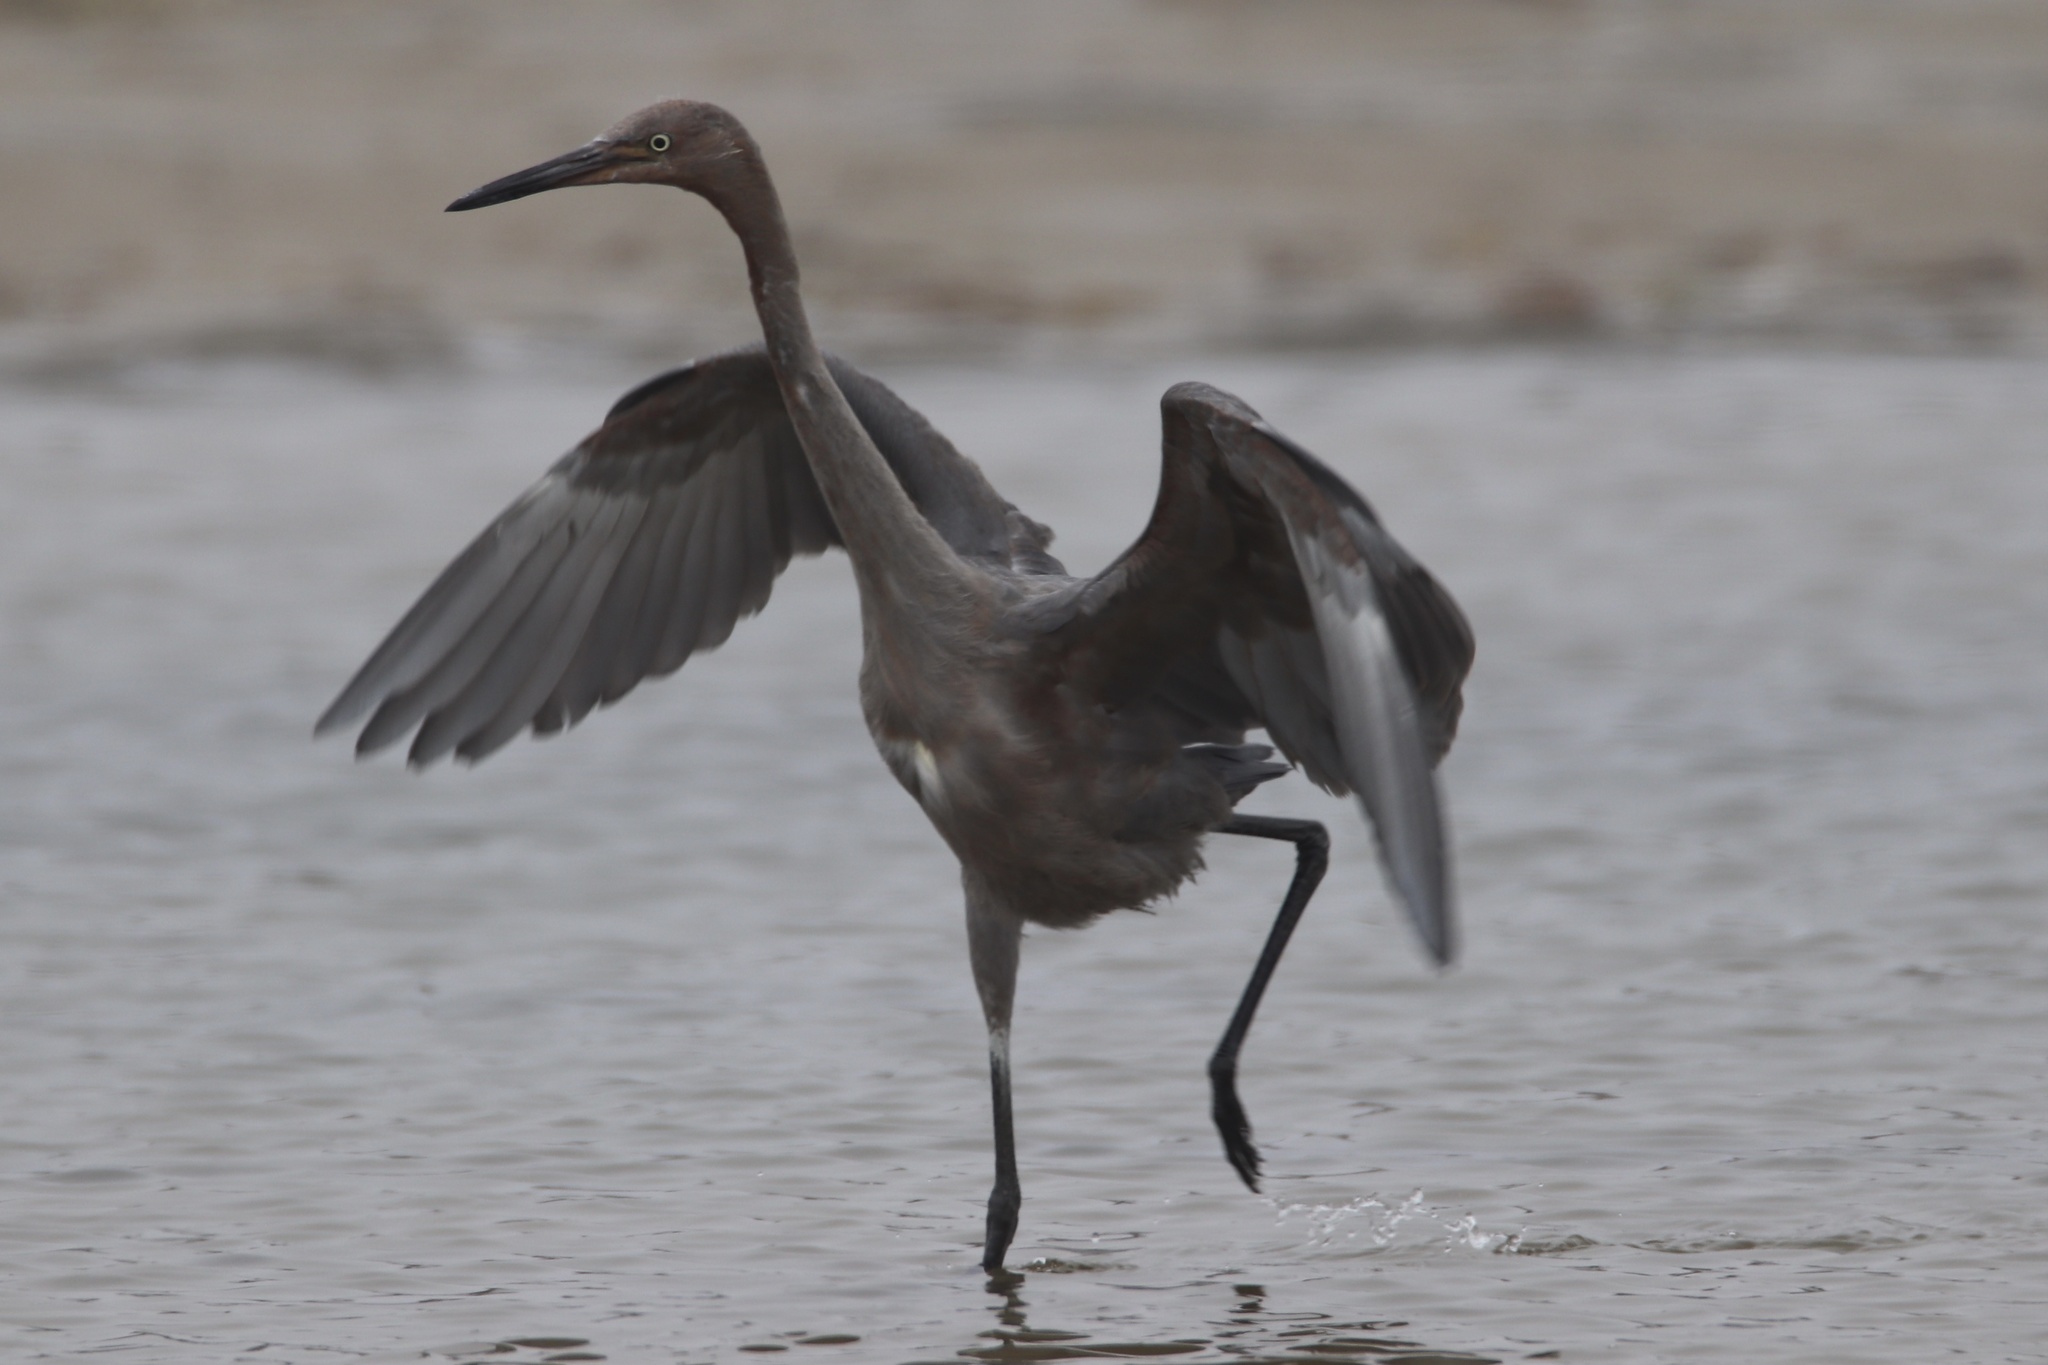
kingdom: Animalia
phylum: Chordata
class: Aves
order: Pelecaniformes
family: Ardeidae
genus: Egretta
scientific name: Egretta rufescens
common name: Reddish egret
